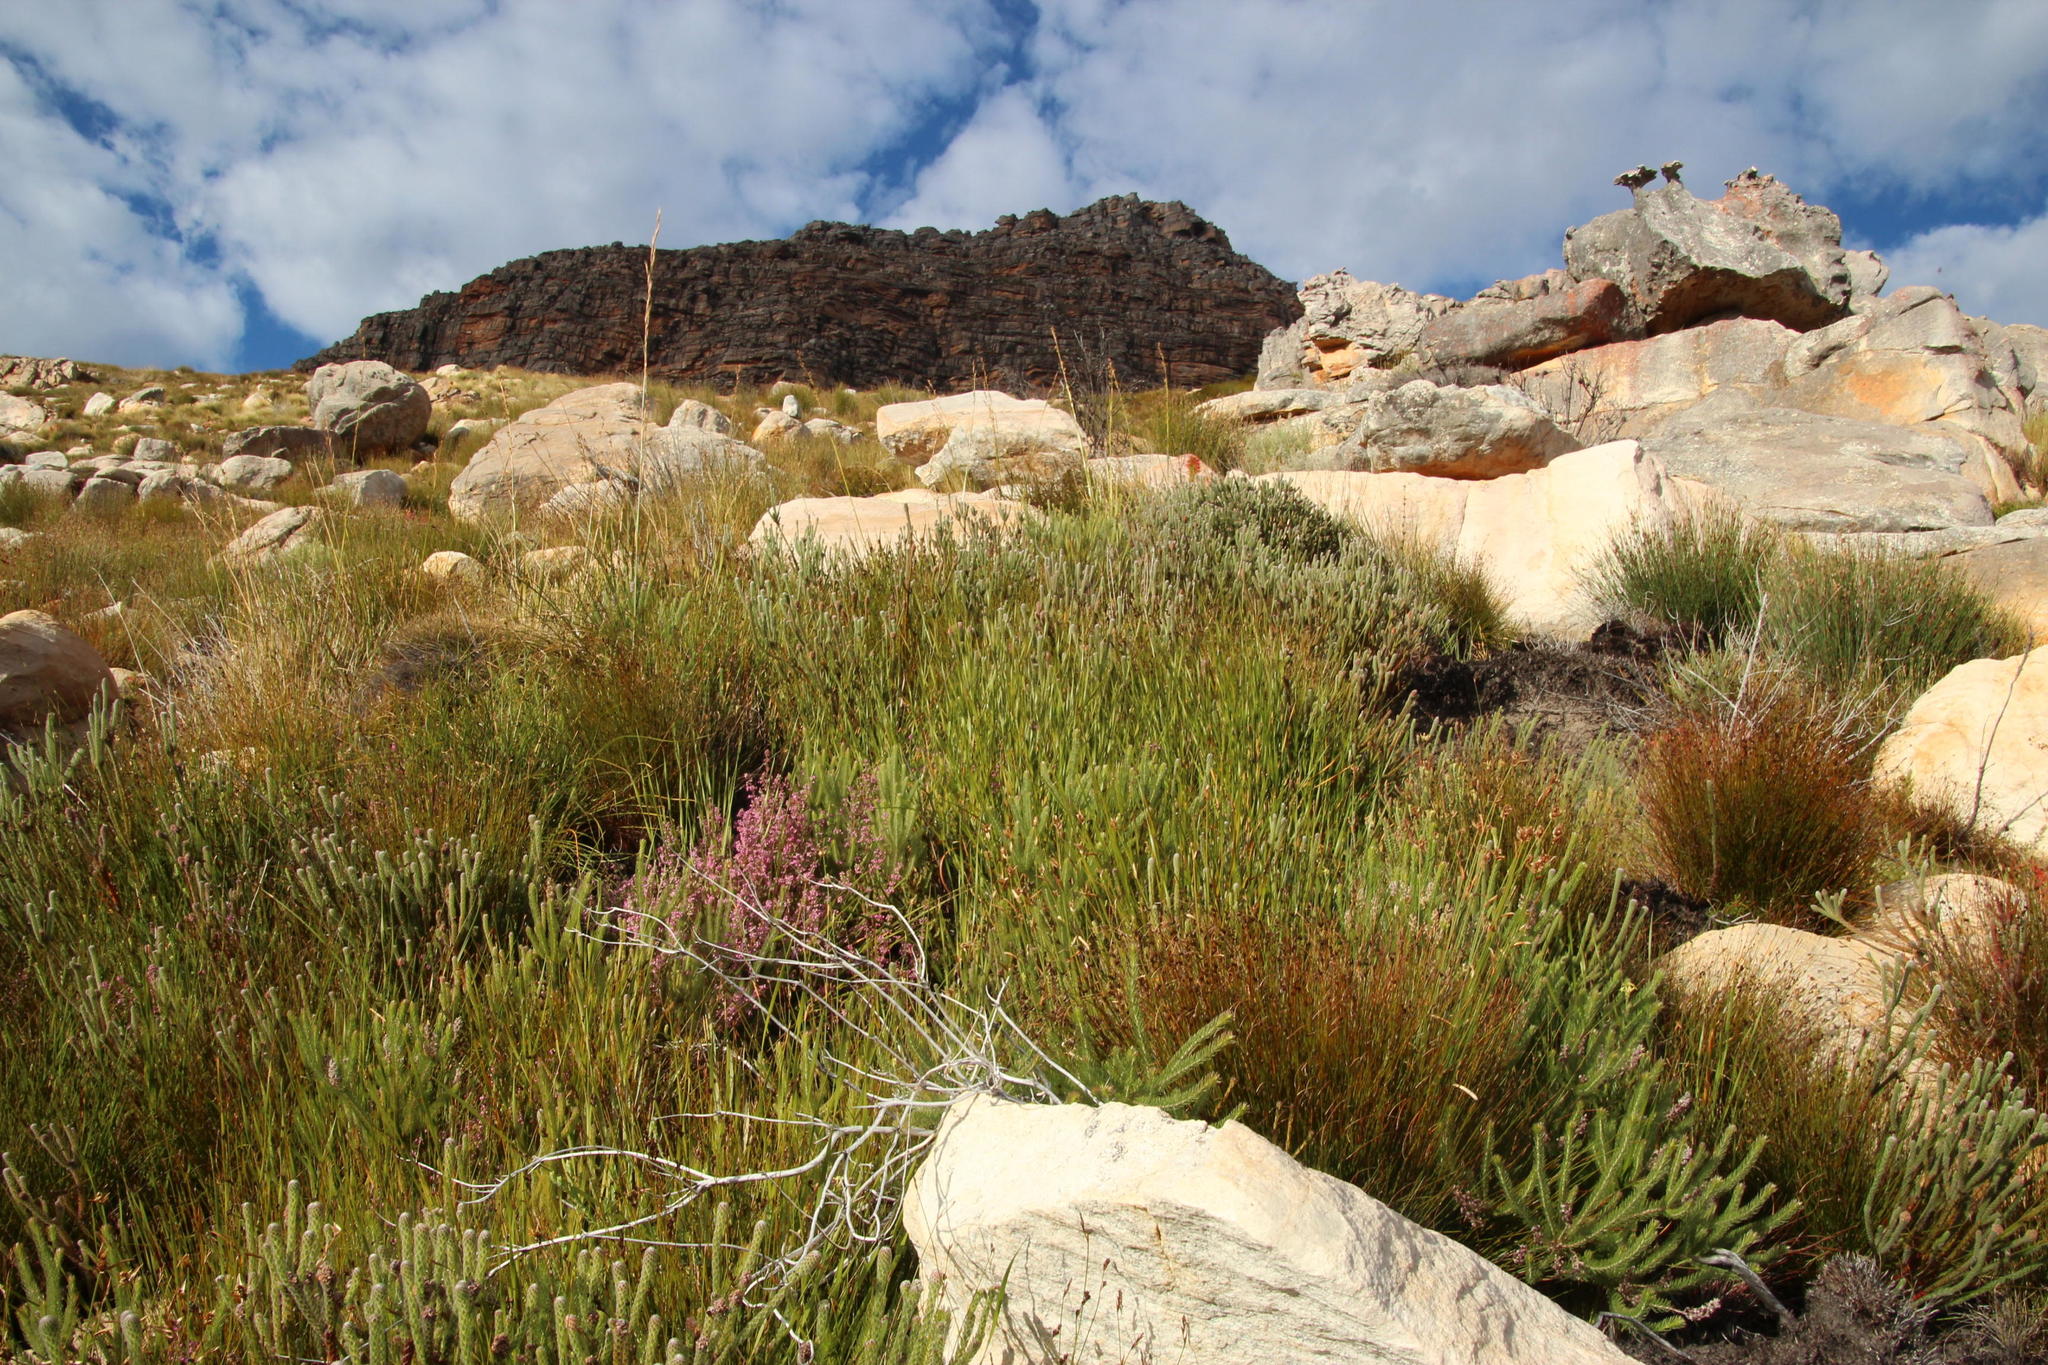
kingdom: Plantae
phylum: Tracheophyta
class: Magnoliopsida
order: Ericales
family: Ericaceae
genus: Erica
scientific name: Erica bergiana
